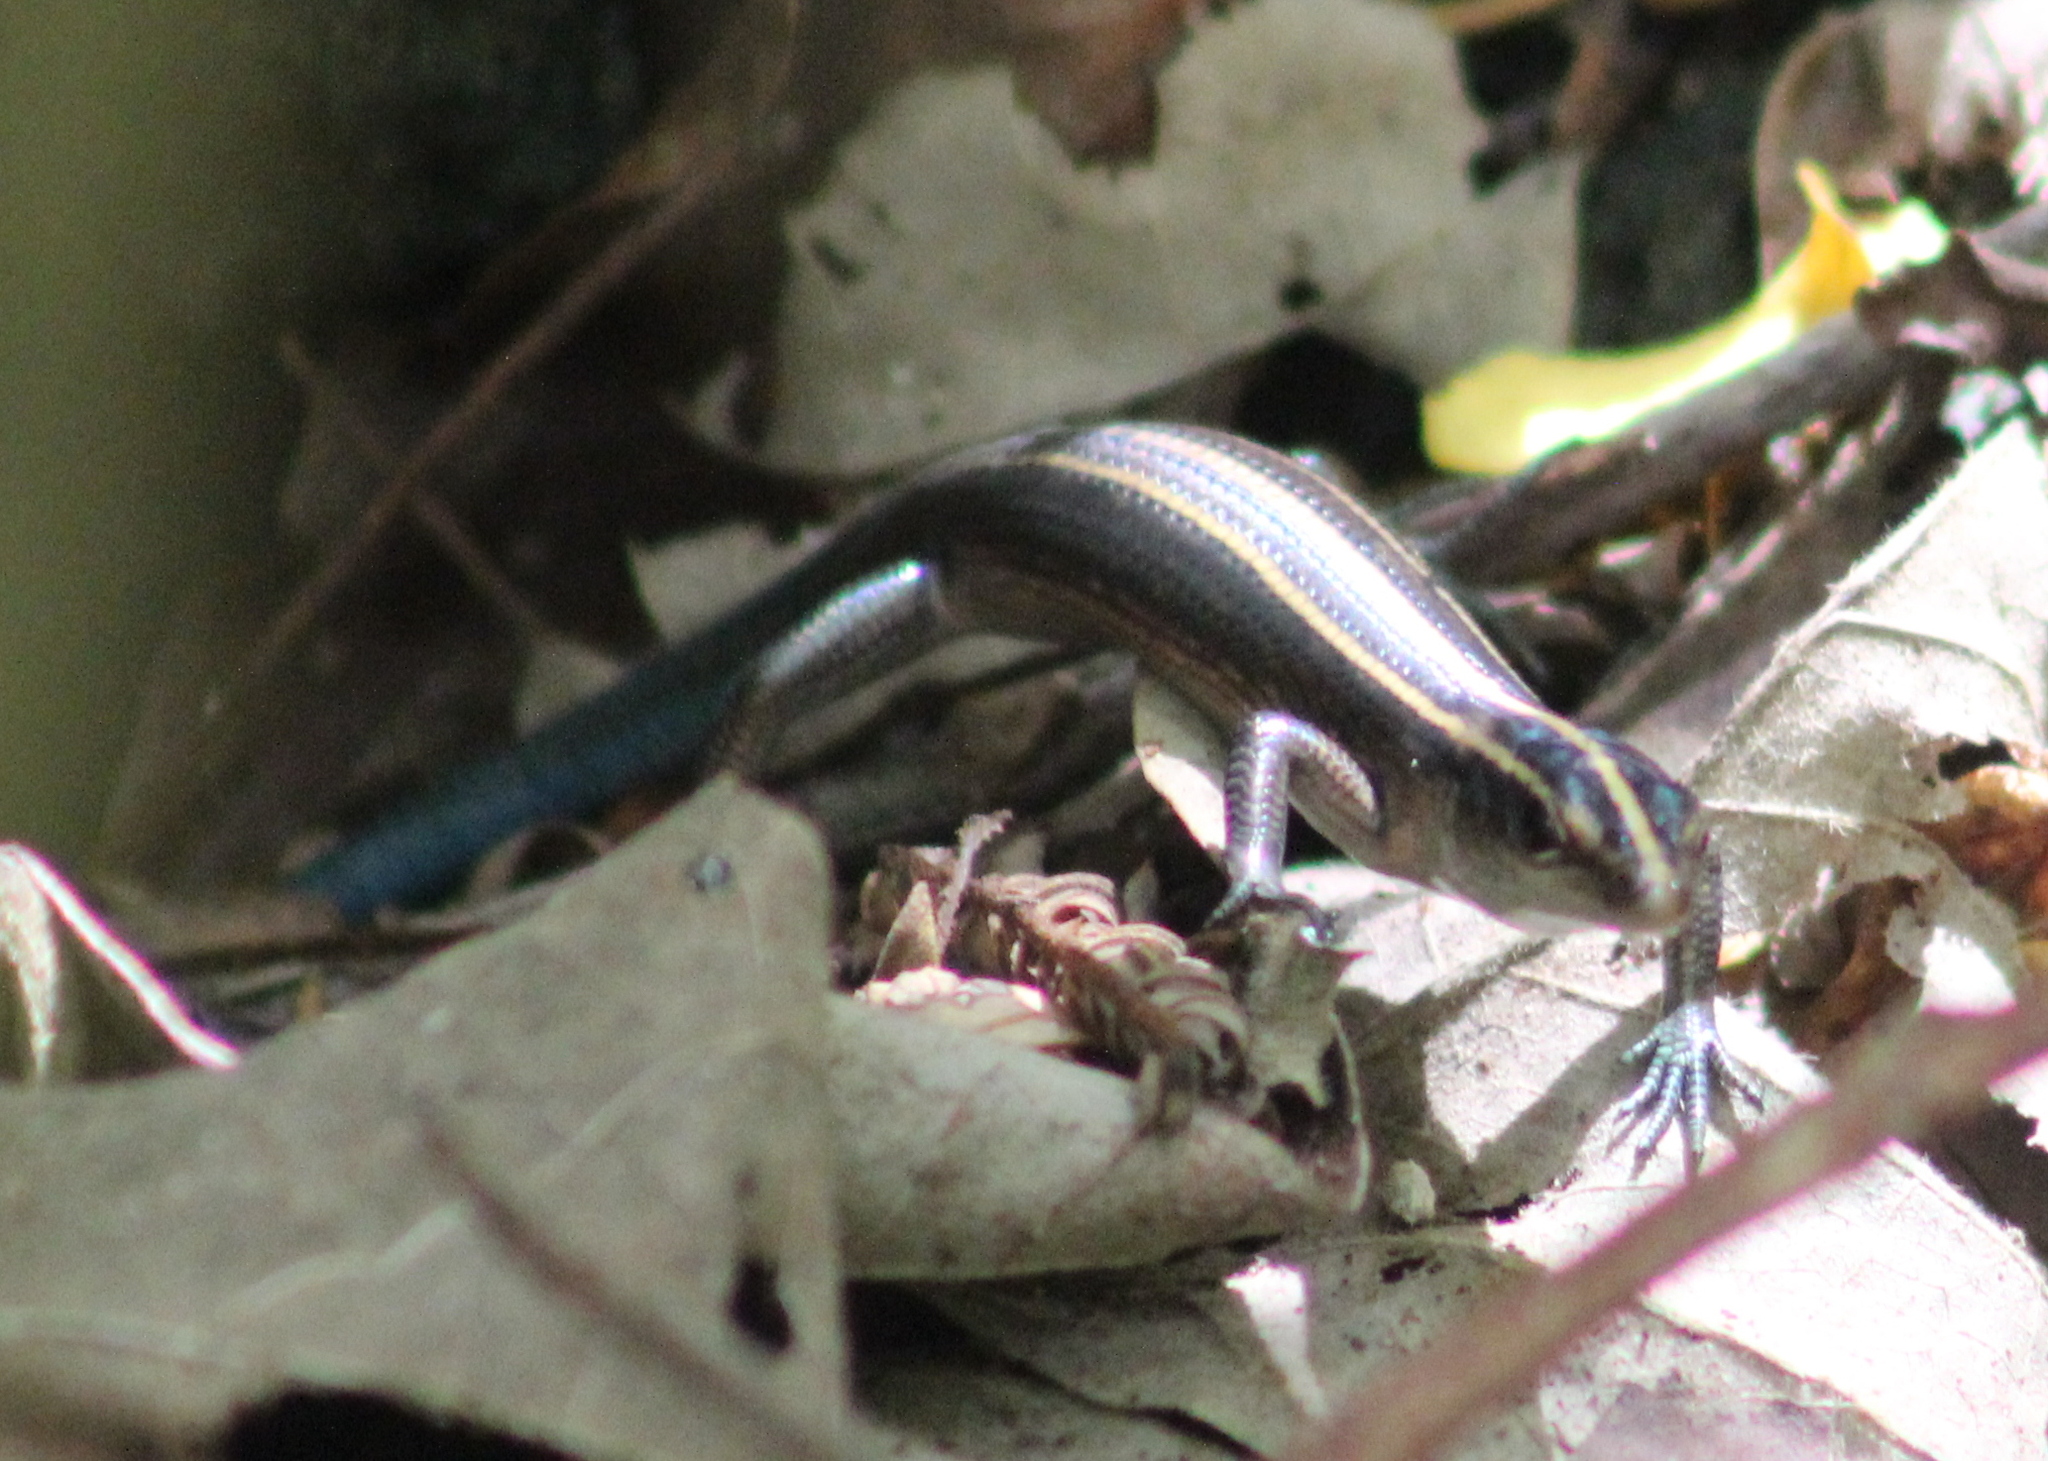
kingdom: Animalia
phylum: Chordata
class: Squamata
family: Scincidae
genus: Emoia
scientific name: Emoia impar
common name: Azure-tailed skink
